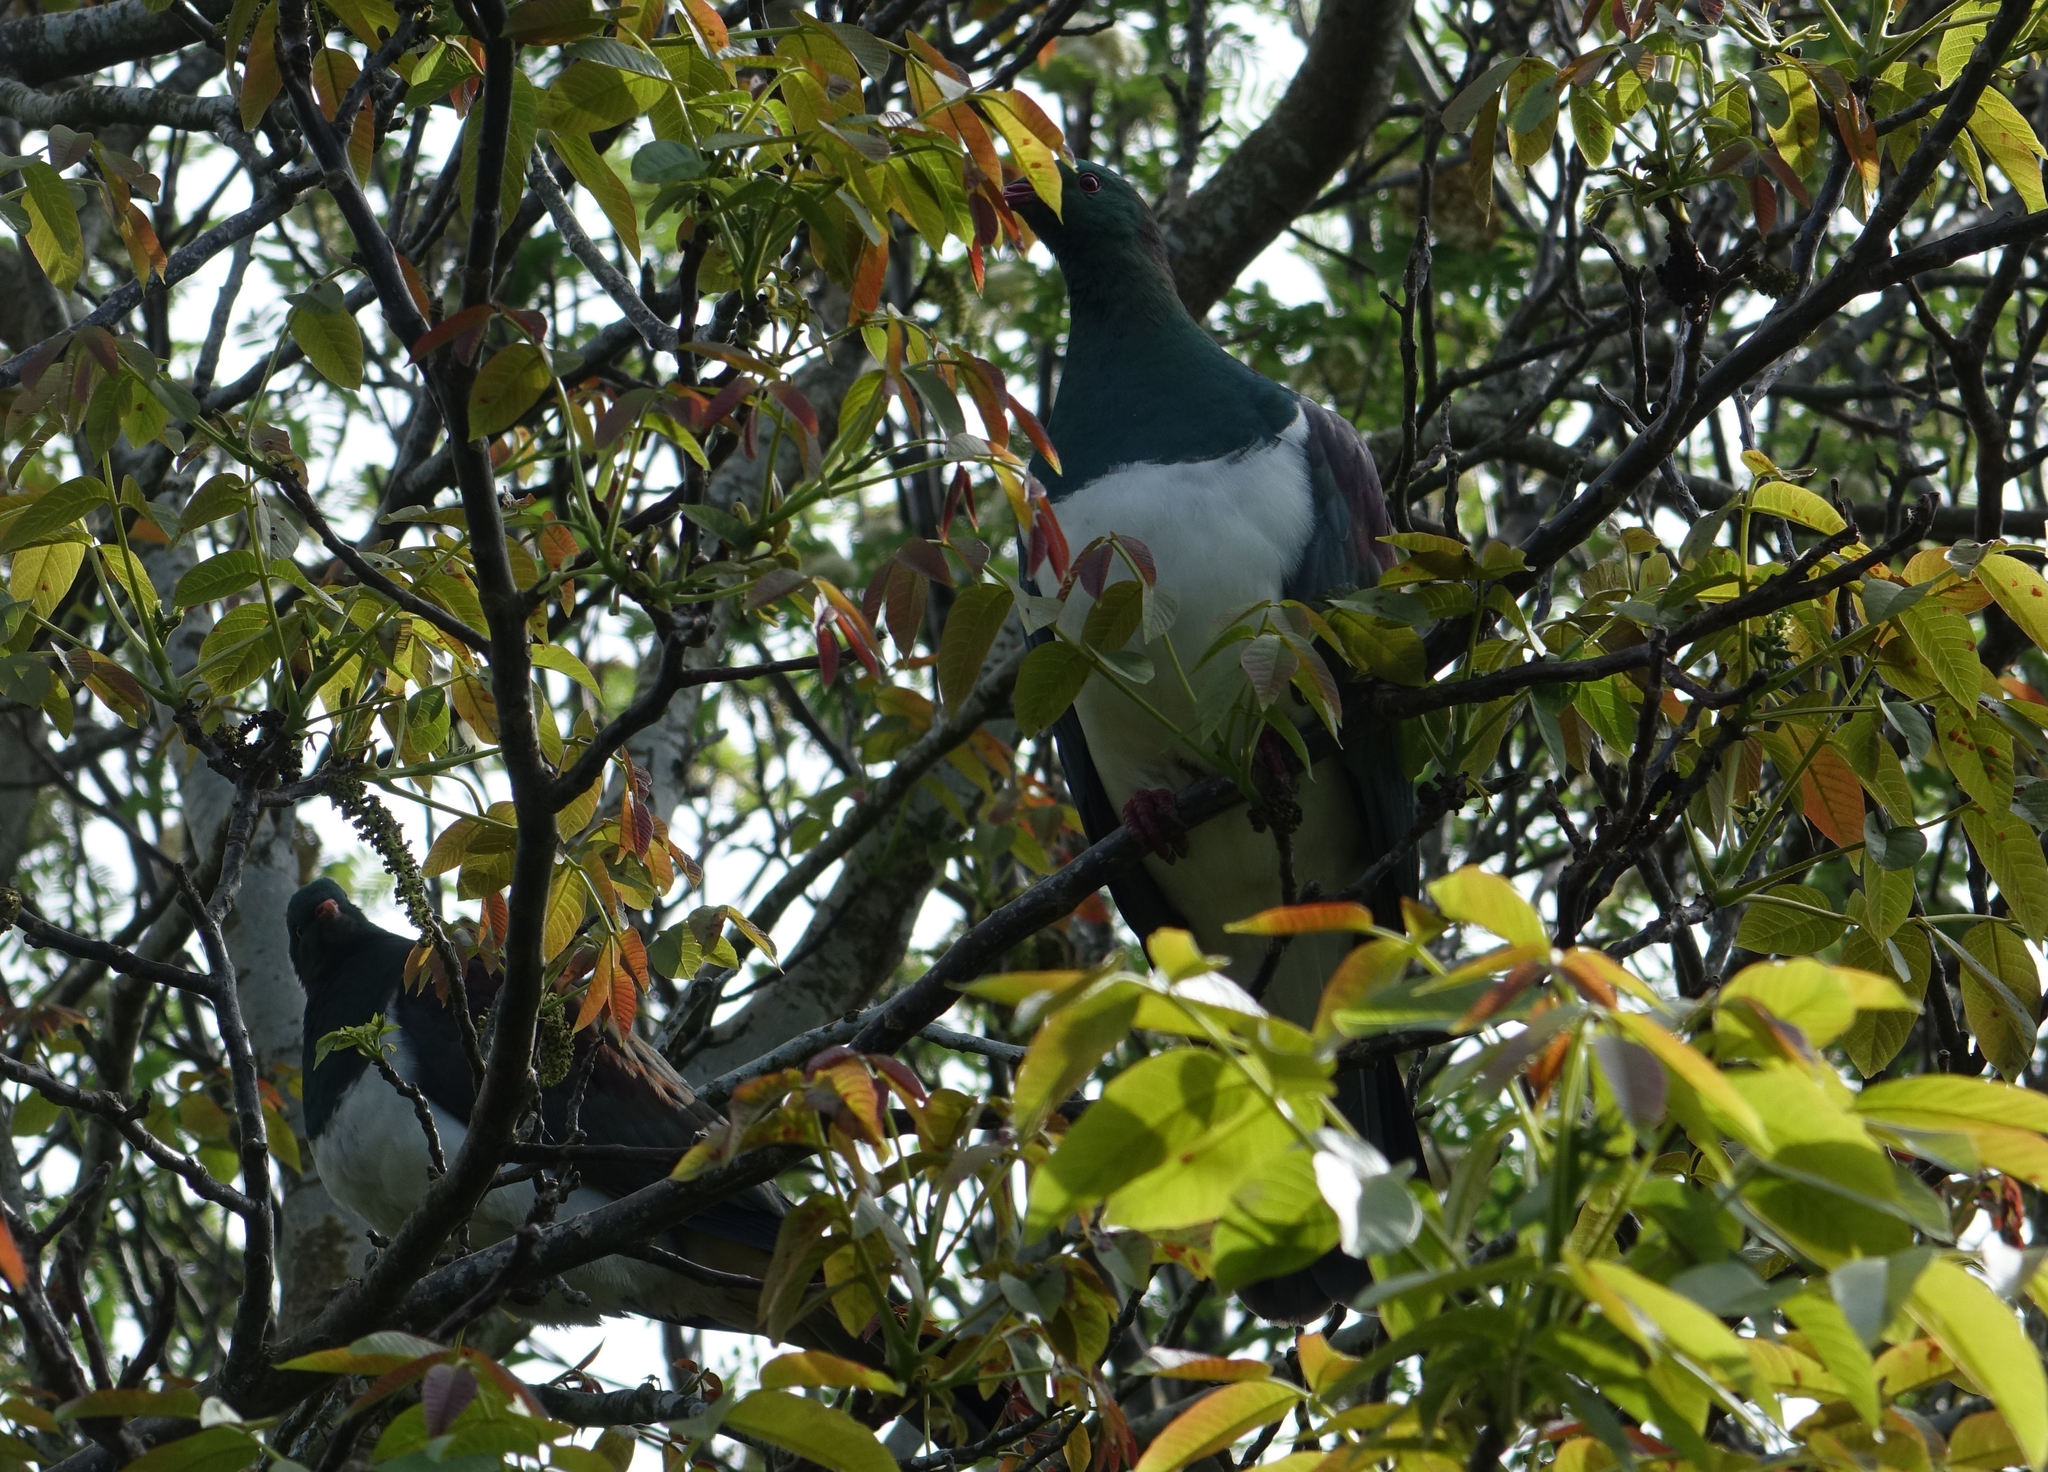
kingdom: Animalia
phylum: Chordata
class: Aves
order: Columbiformes
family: Columbidae
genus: Hemiphaga
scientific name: Hemiphaga novaeseelandiae
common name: New zealand pigeon
